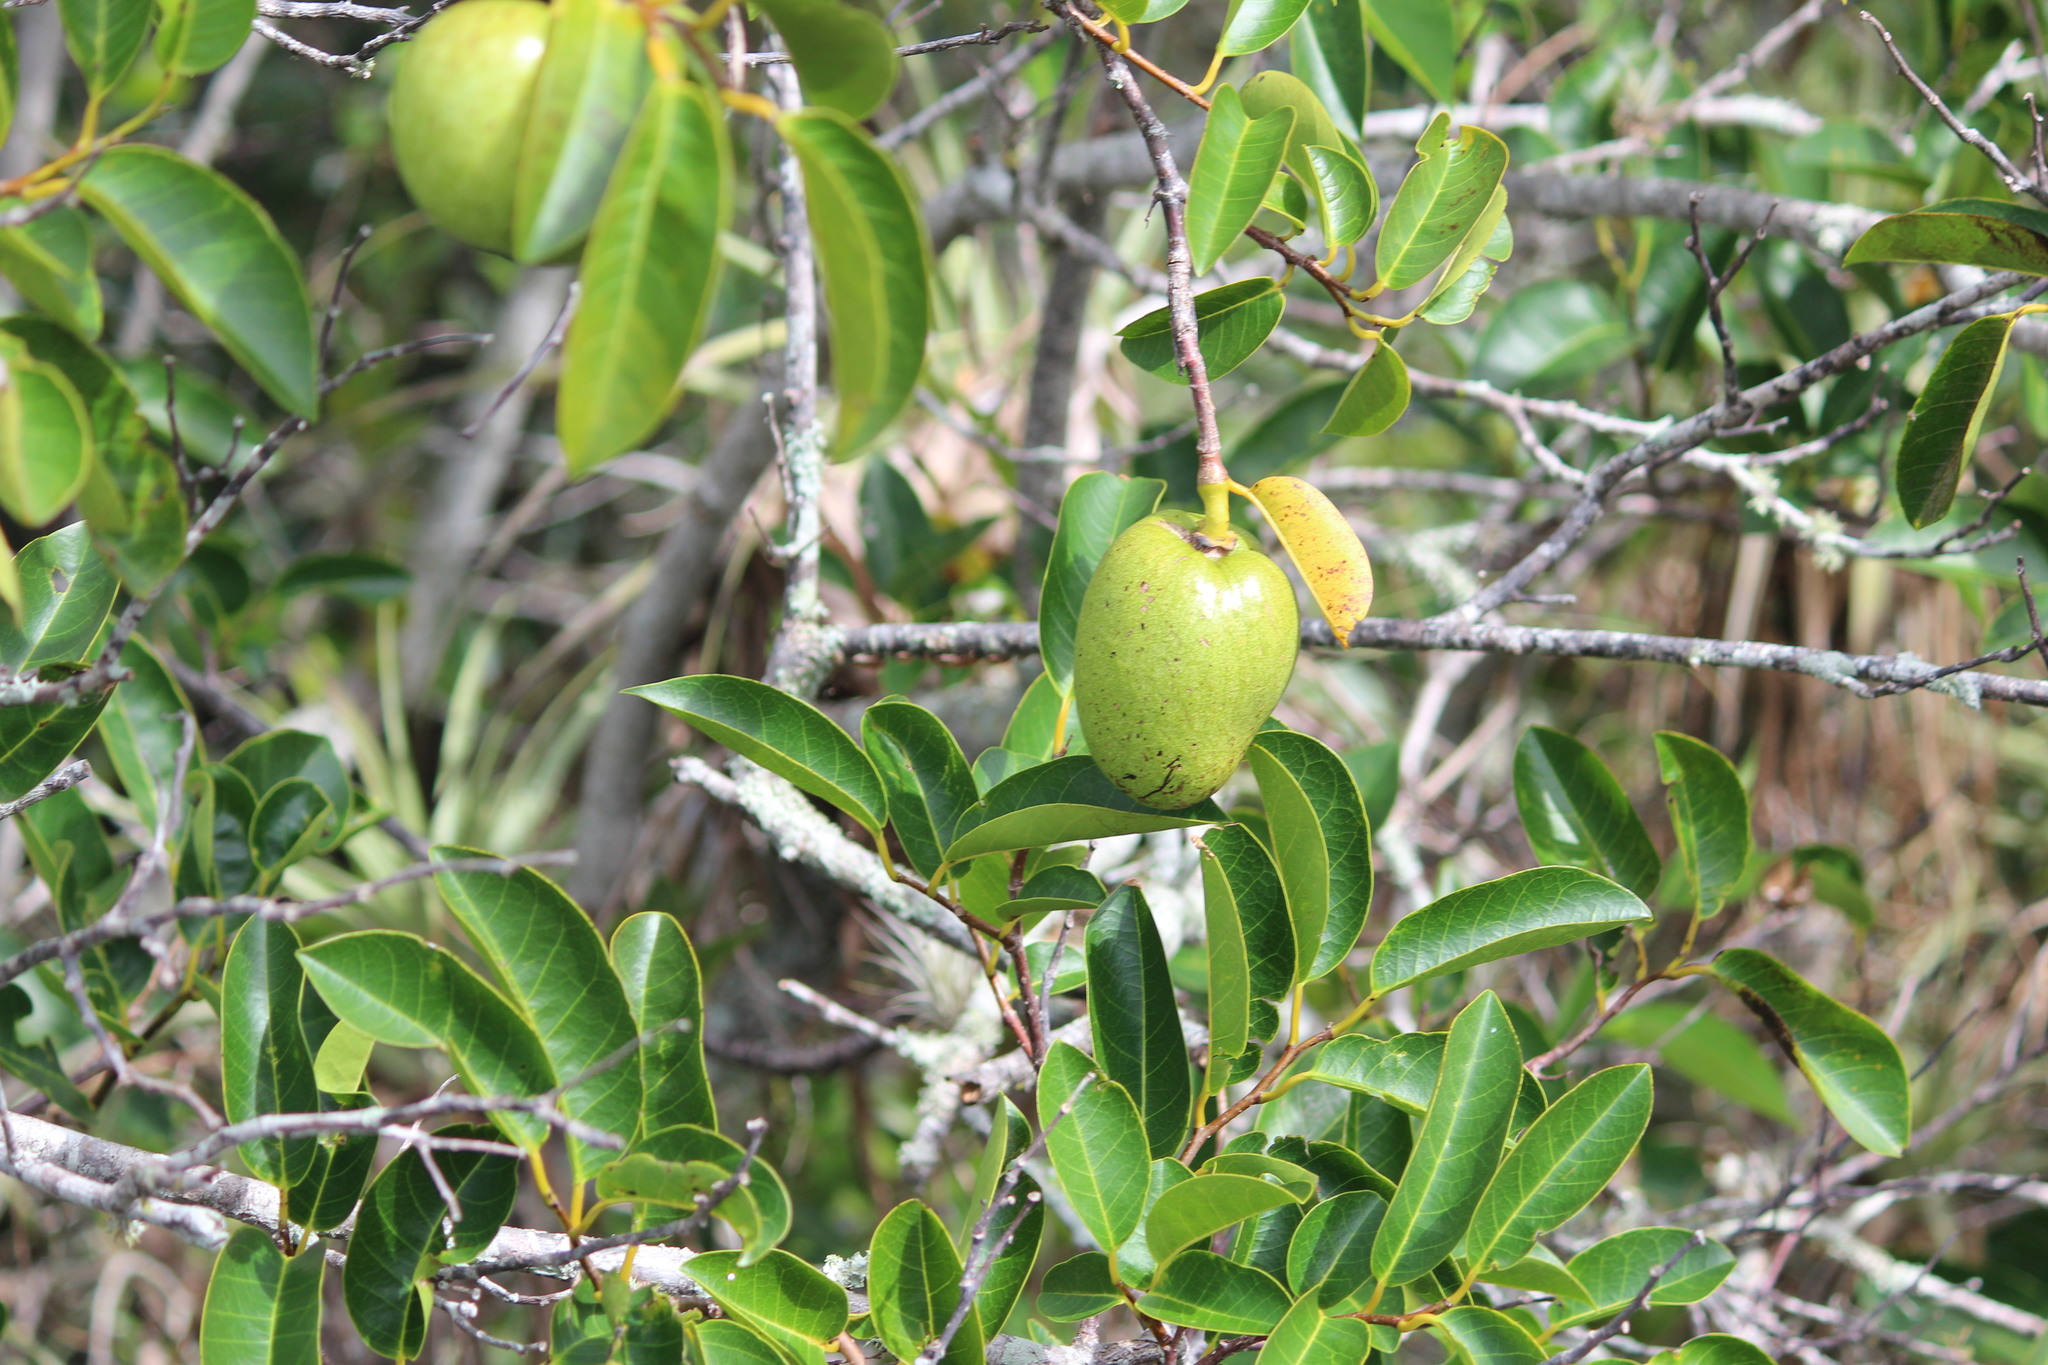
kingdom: Plantae
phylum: Tracheophyta
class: Magnoliopsida
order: Magnoliales
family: Annonaceae
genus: Annona
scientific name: Annona glabra
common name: Monkey apple
